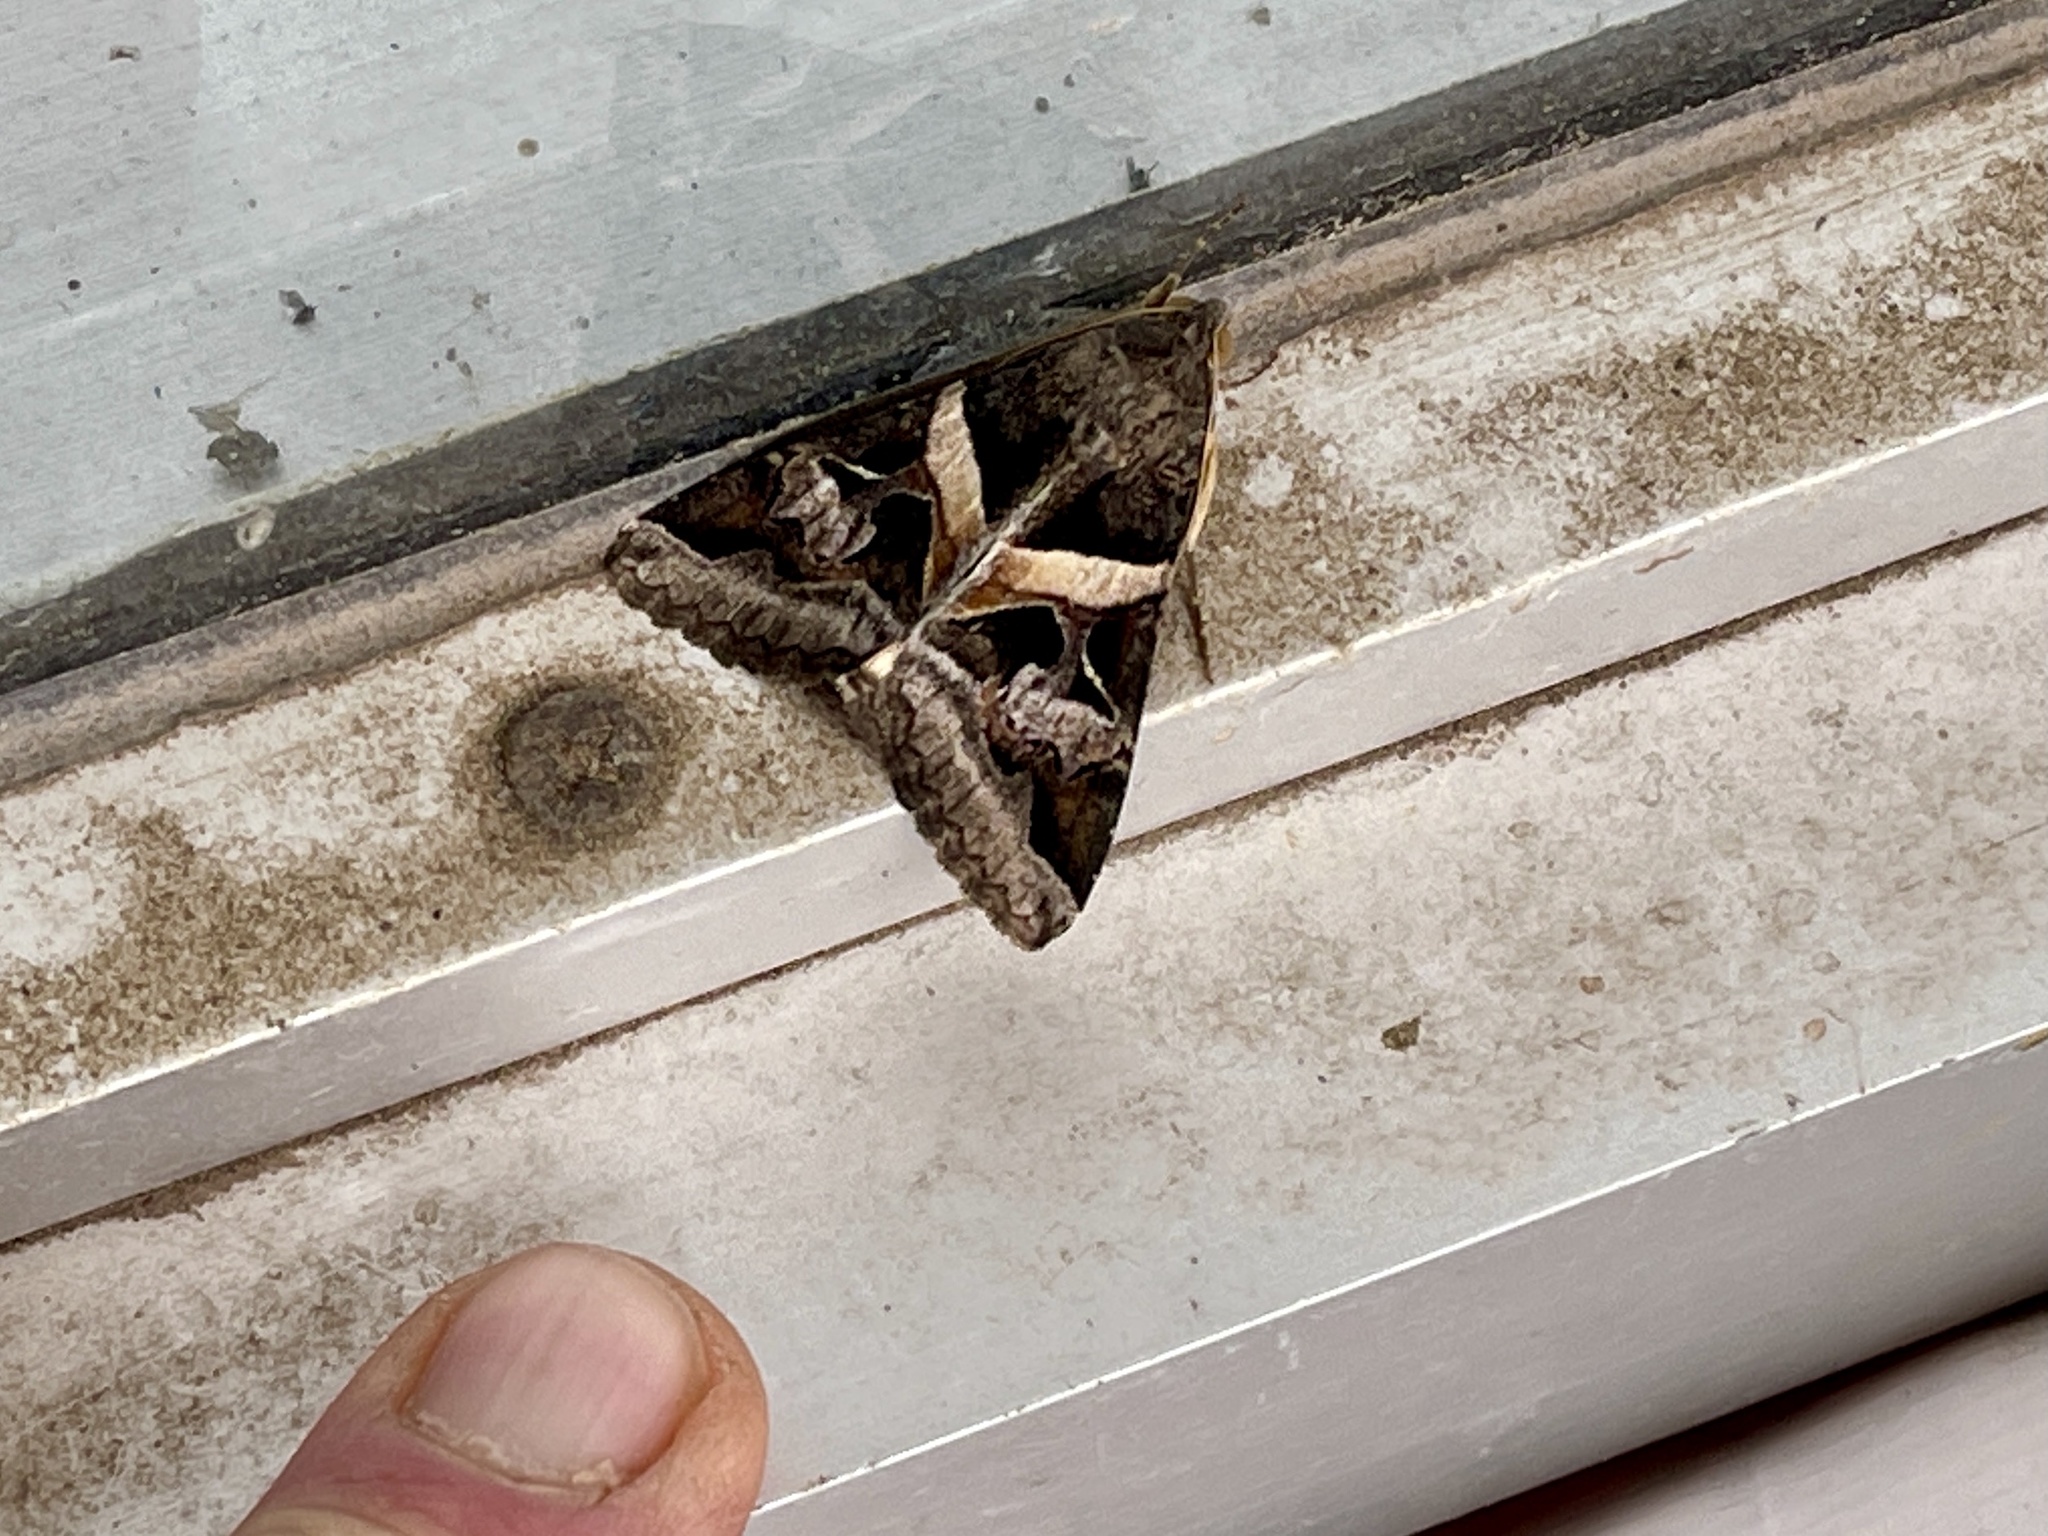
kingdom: Animalia
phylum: Arthropoda
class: Insecta
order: Lepidoptera
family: Erebidae
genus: Melipotis
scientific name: Melipotis indomita
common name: Moth
